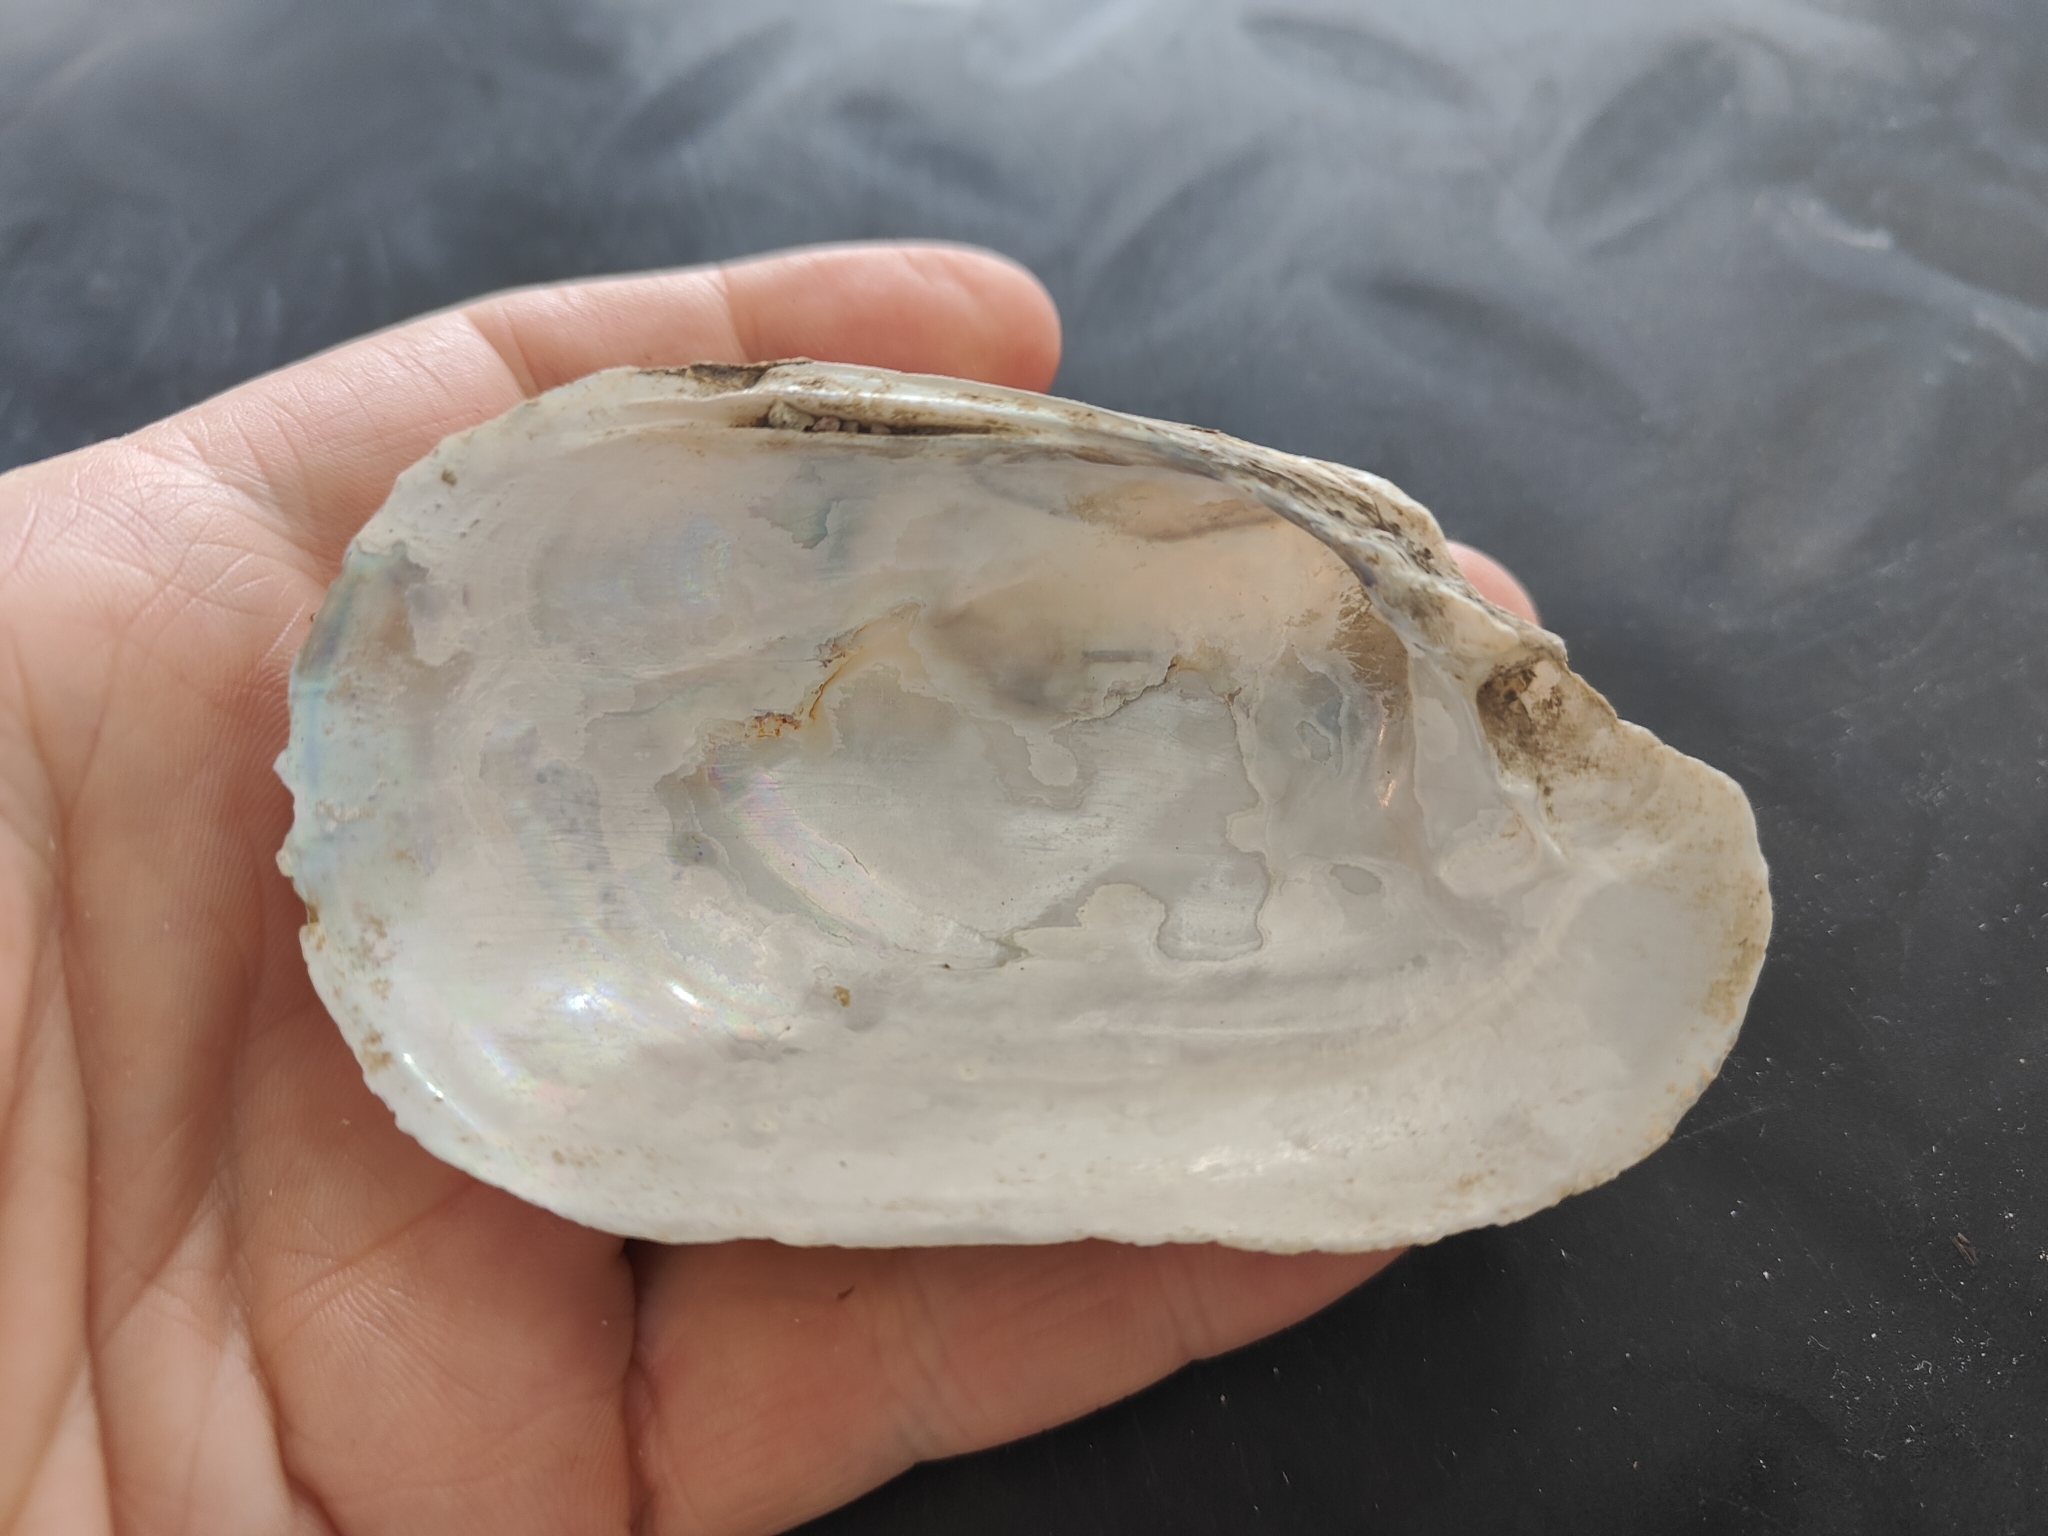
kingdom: Animalia
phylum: Mollusca
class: Bivalvia
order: Unionida
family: Unionidae
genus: Lampsilis
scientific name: Lampsilis siliquoidea
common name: Fatmucket
